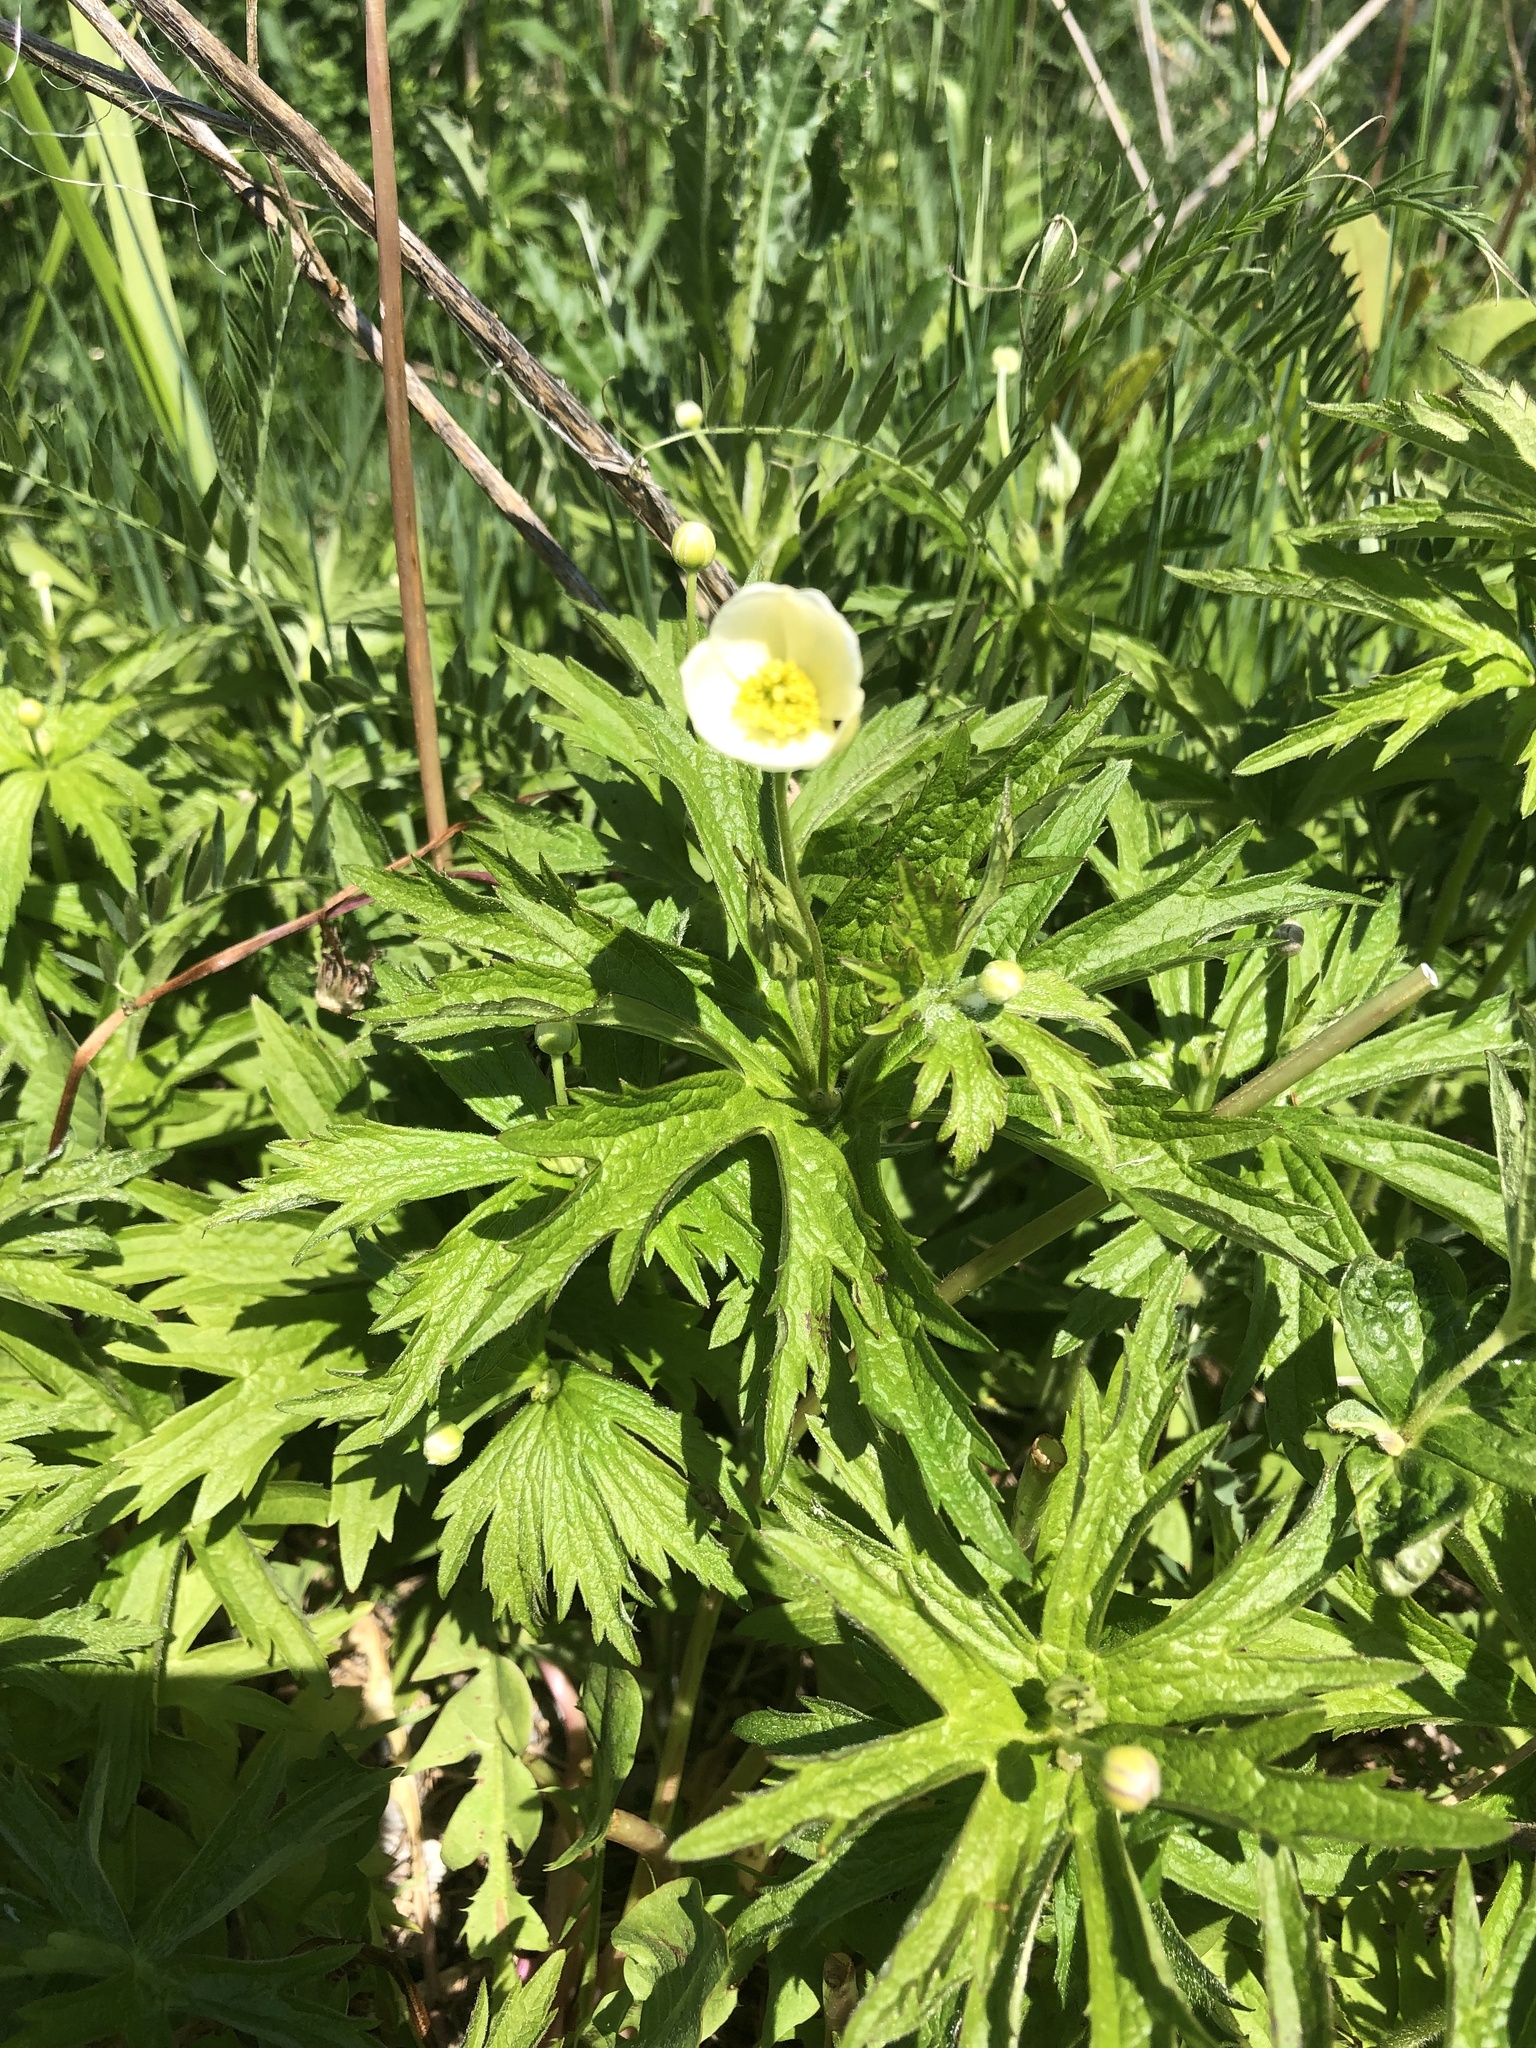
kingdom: Plantae
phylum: Tracheophyta
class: Magnoliopsida
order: Ranunculales
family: Ranunculaceae
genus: Anemonastrum
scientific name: Anemonastrum canadense
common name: Canada anemone
